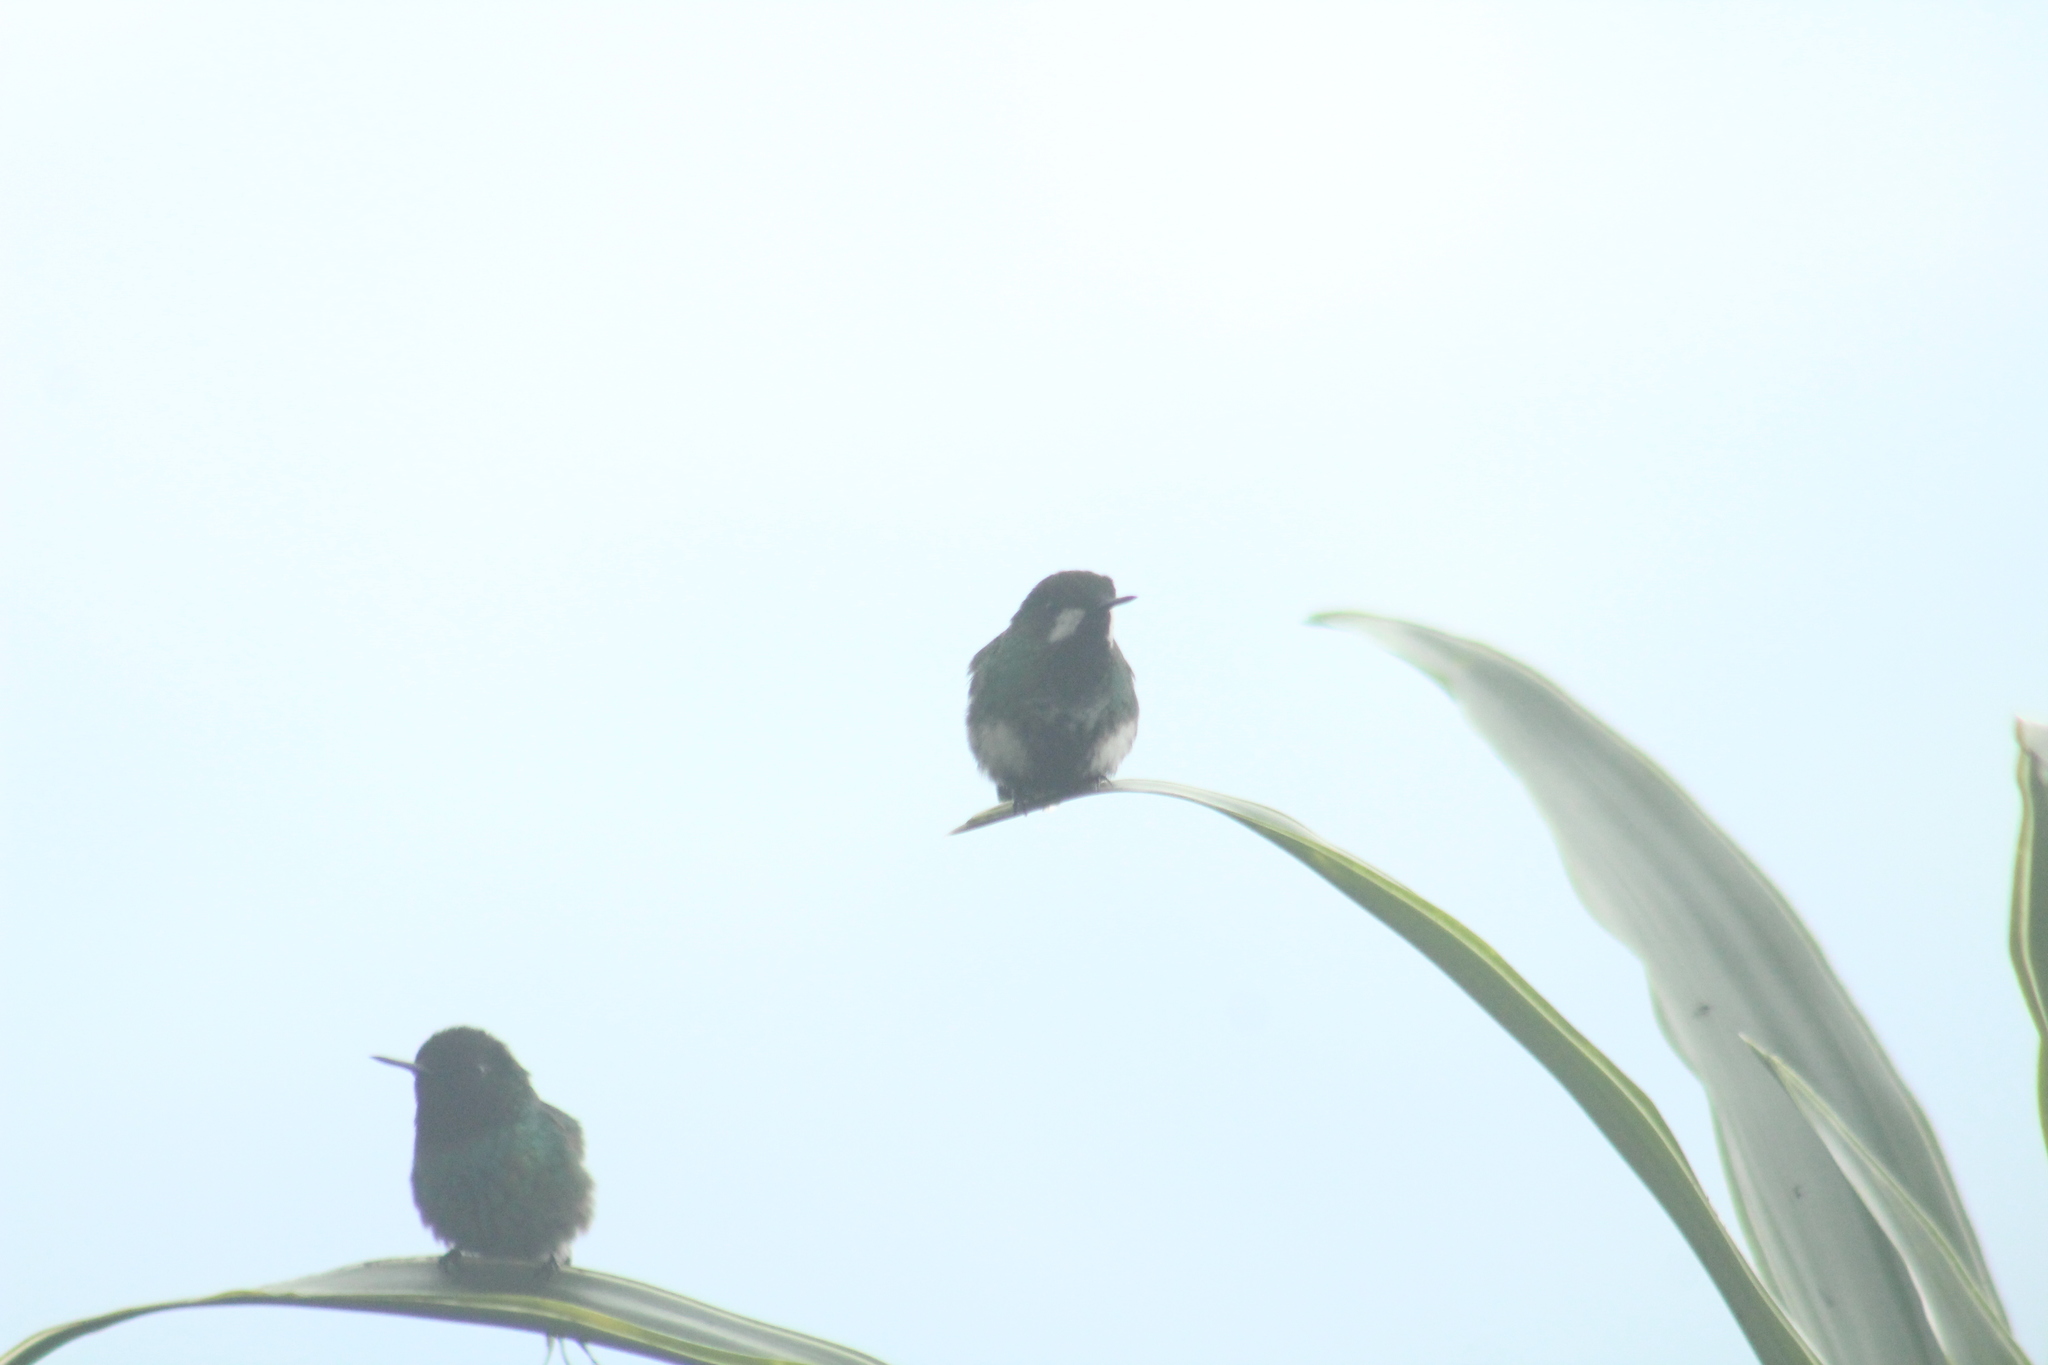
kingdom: Animalia
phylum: Chordata
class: Aves
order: Apodiformes
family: Trochilidae
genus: Discosura
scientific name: Discosura conversii
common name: Green thorntail
